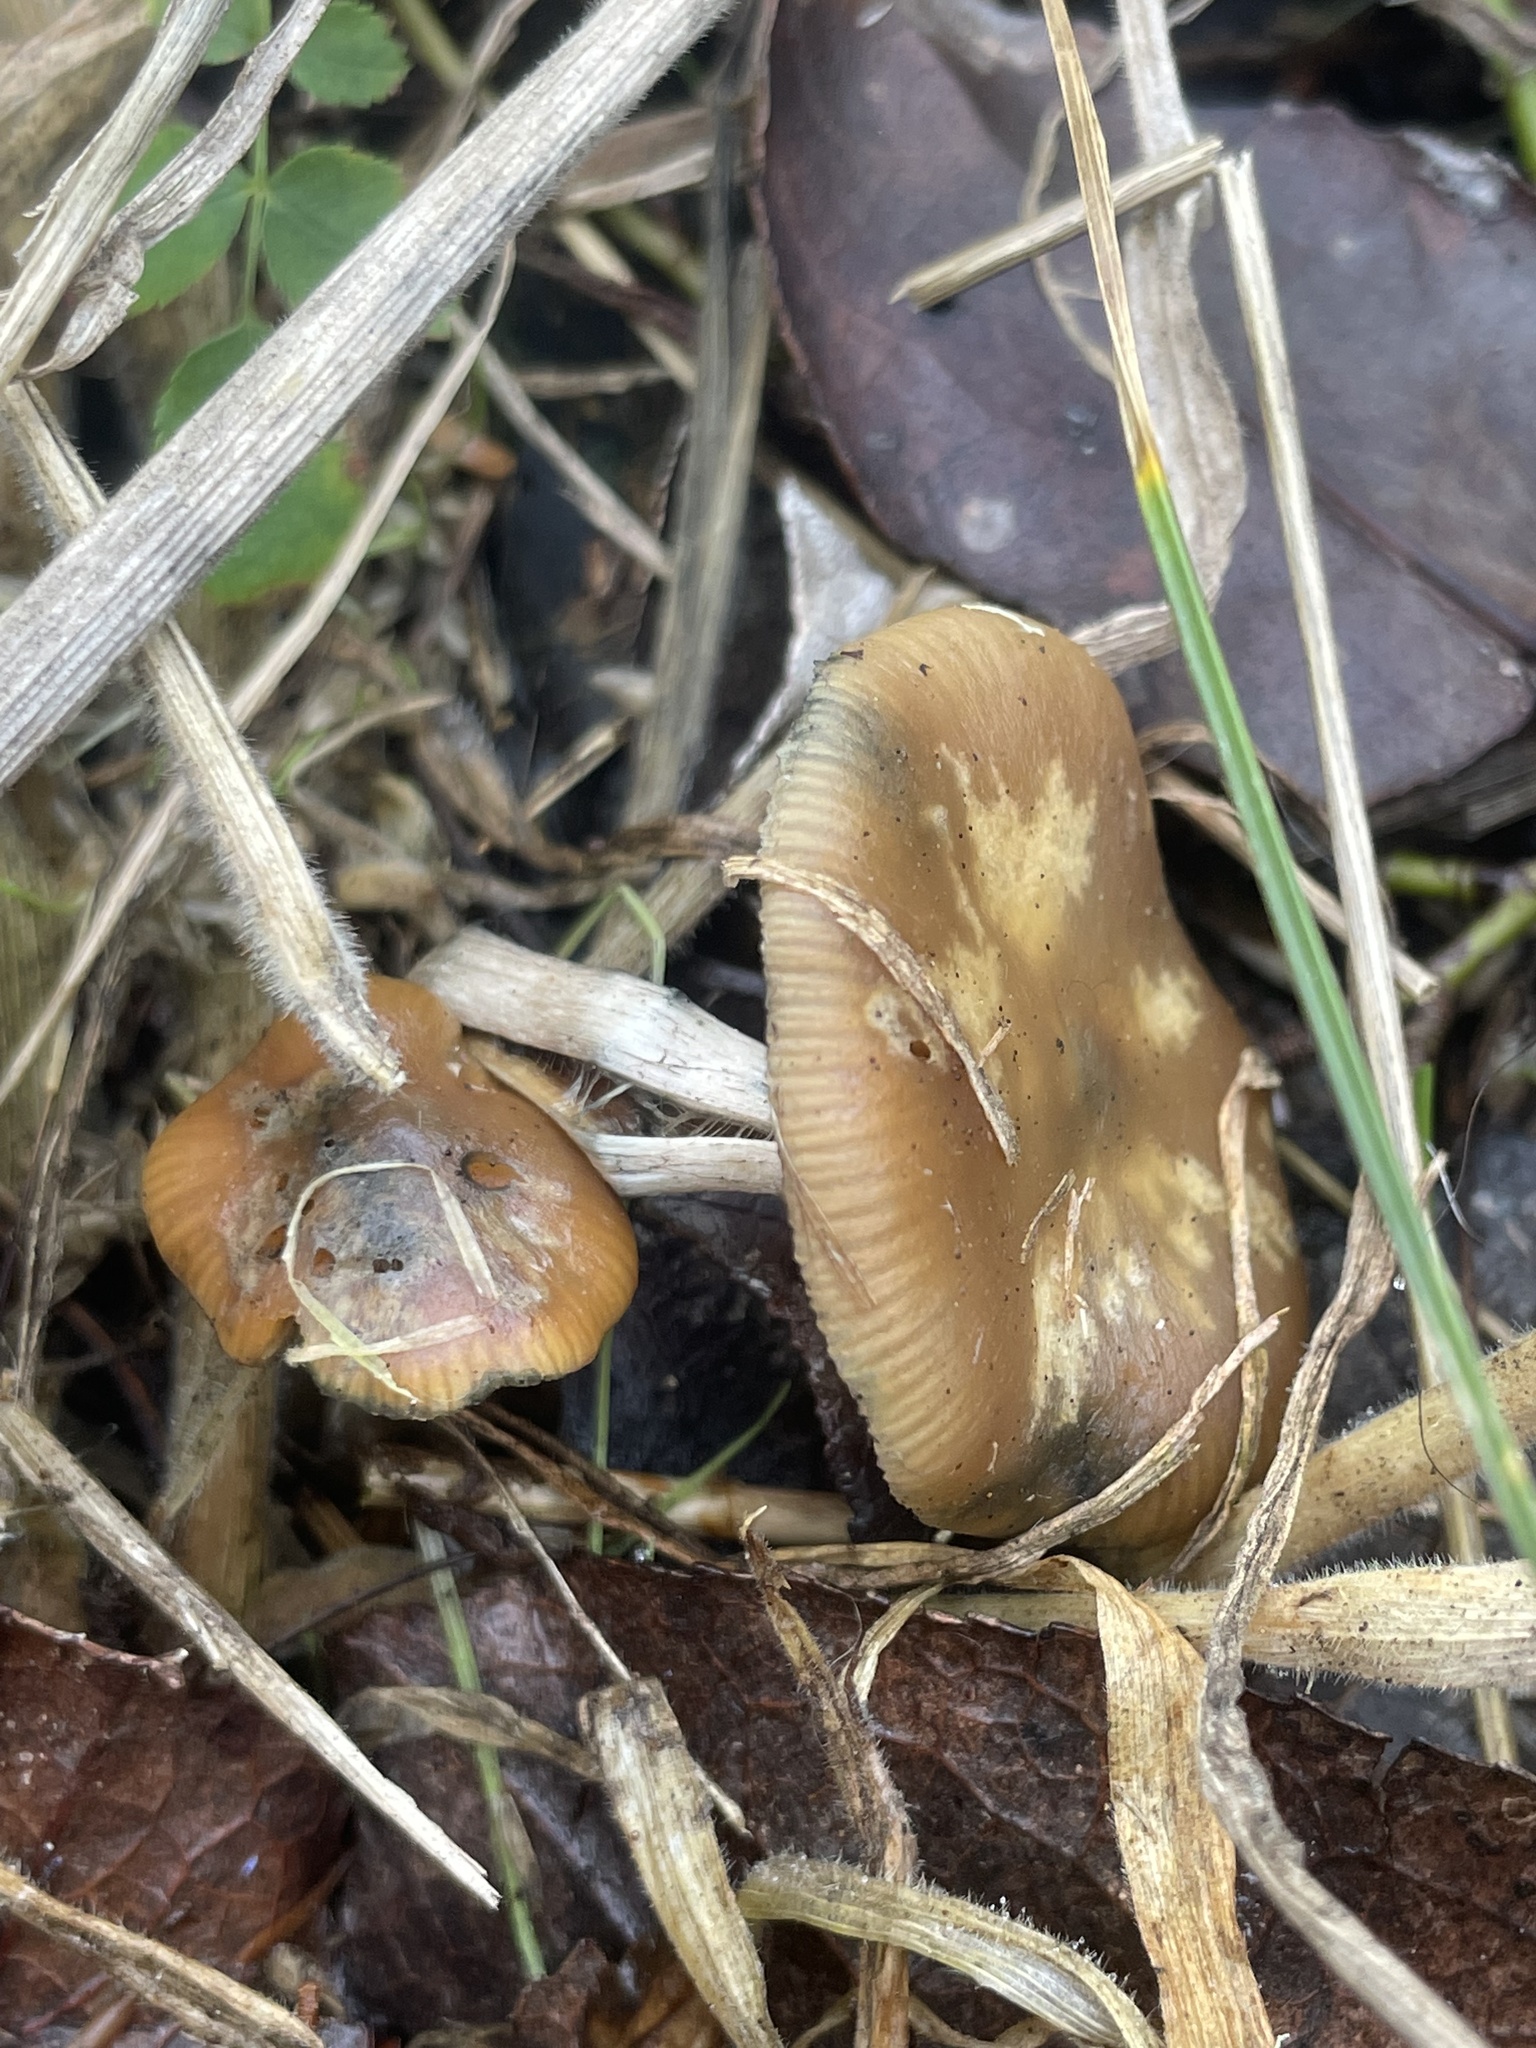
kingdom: Fungi
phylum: Basidiomycota
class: Agaricomycetes
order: Agaricales
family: Hymenogastraceae
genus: Psilocybe
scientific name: Psilocybe cyanescens
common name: Blueleg brownie
